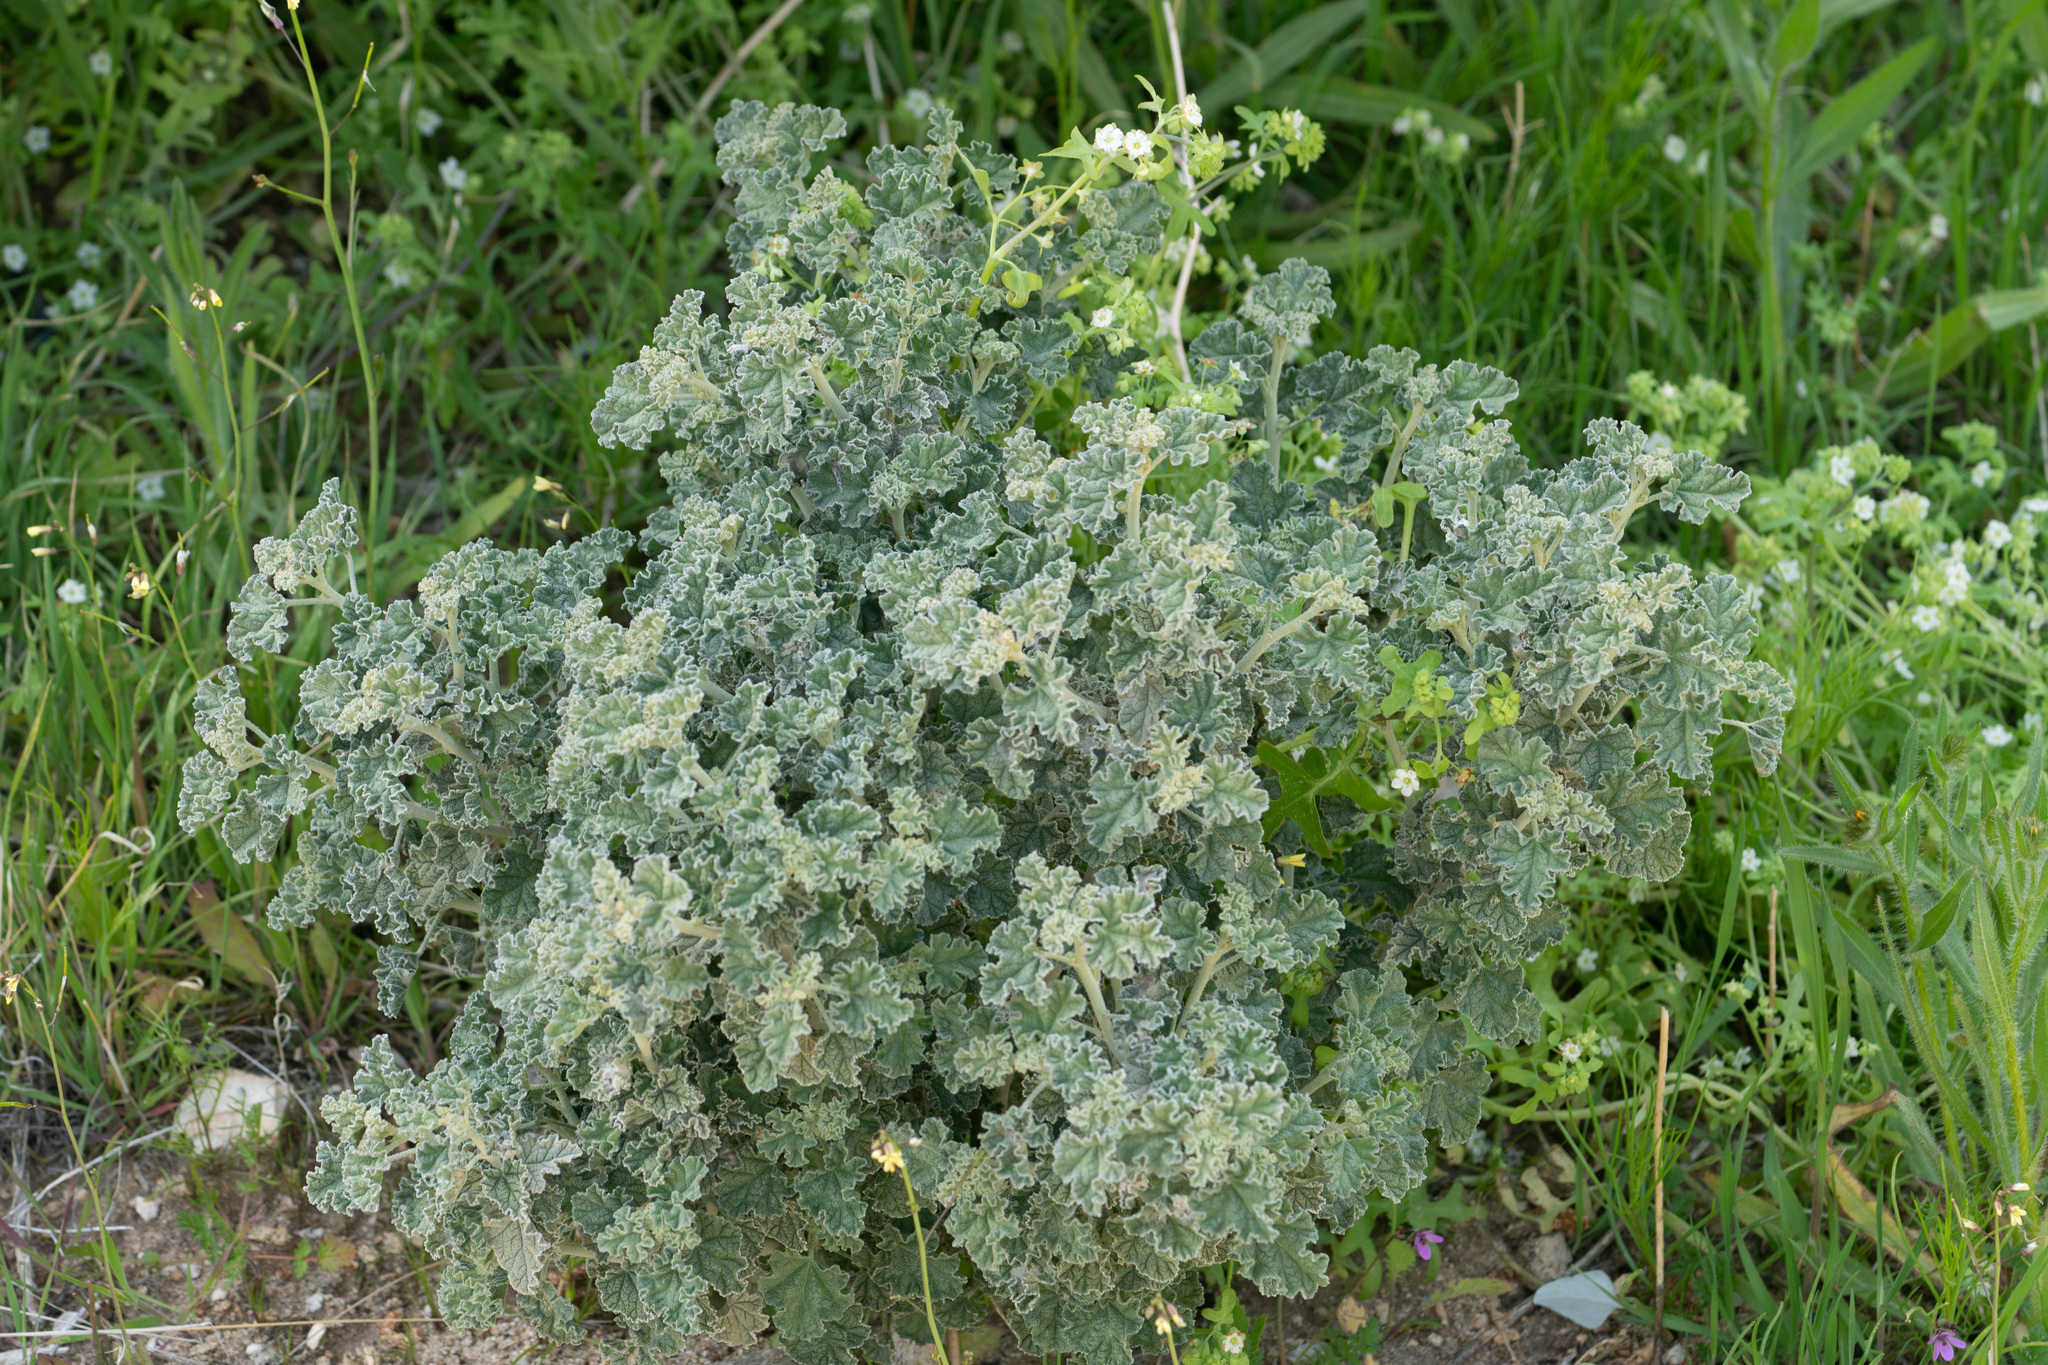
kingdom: Plantae
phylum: Tracheophyta
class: Magnoliopsida
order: Malvales
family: Malvaceae
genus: Sphaeralcea
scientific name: Sphaeralcea ambigua
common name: Apricot globe-mallow
